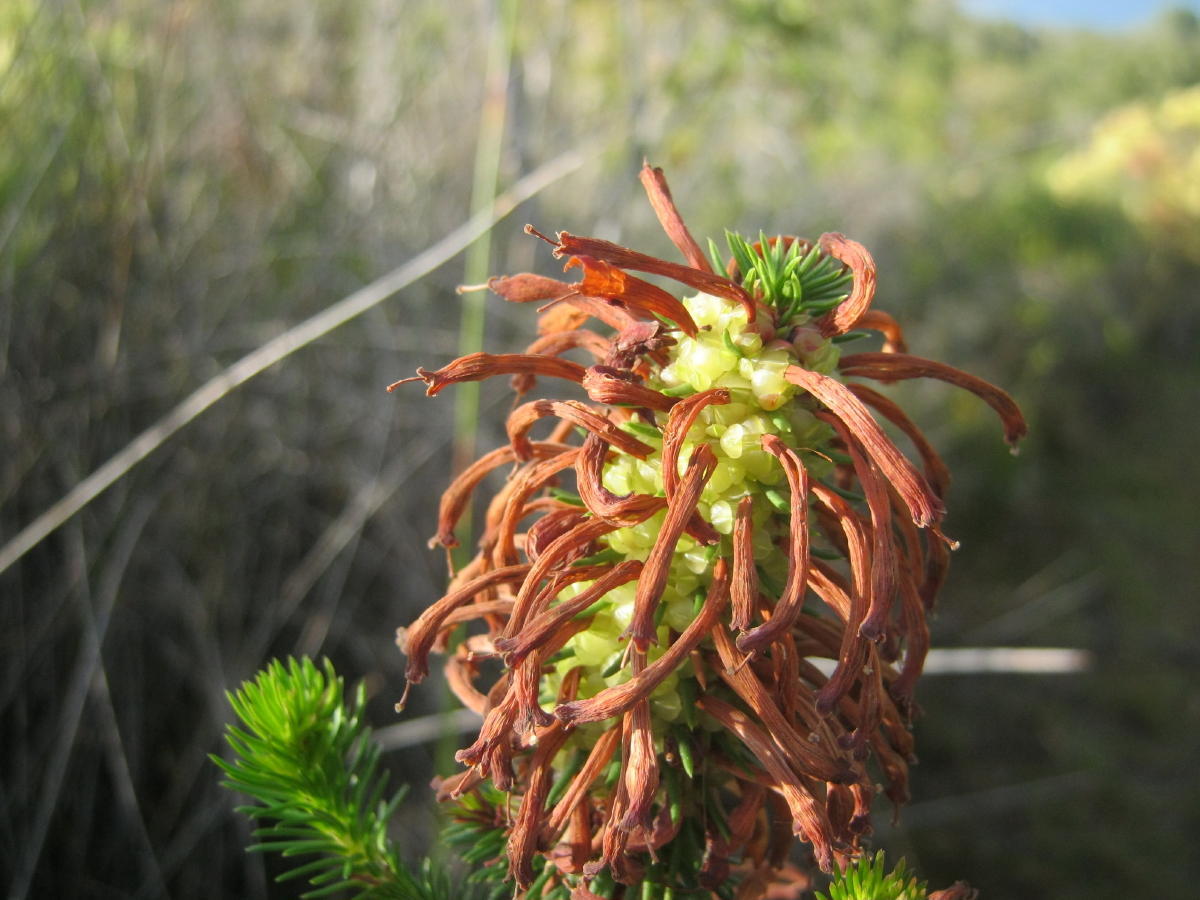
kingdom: Plantae
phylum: Tracheophyta
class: Magnoliopsida
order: Ericales
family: Ericaceae
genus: Erica
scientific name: Erica sessiliflora
